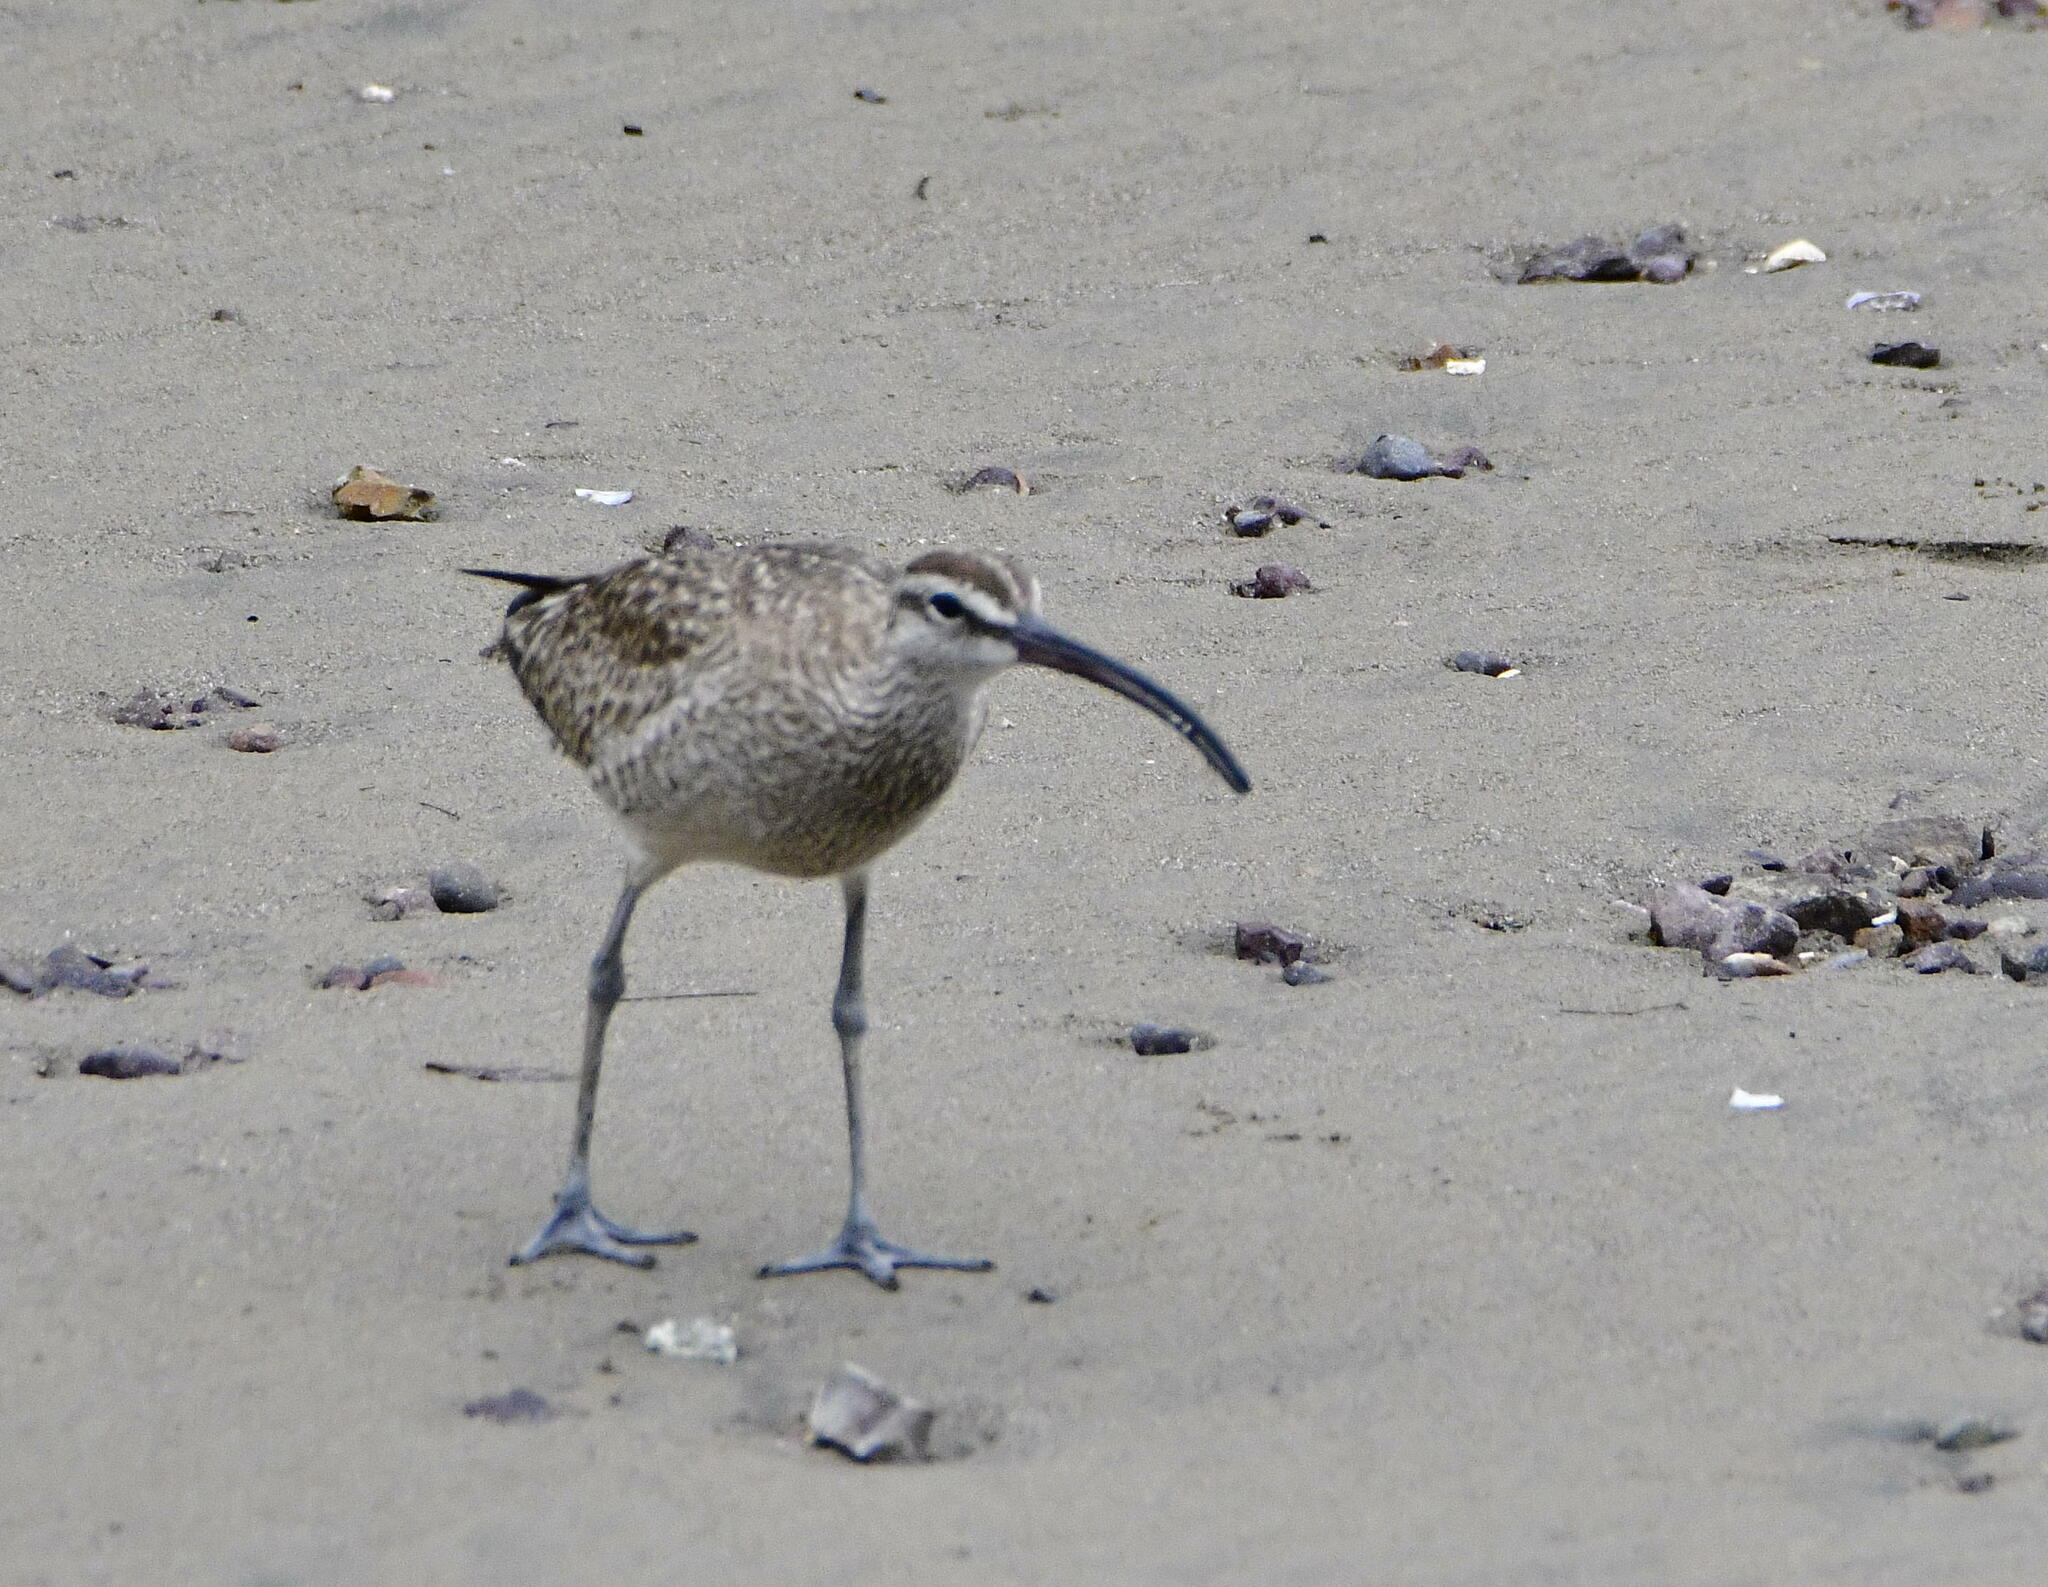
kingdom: Animalia
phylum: Chordata
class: Aves
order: Charadriiformes
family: Scolopacidae
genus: Numenius
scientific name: Numenius phaeopus
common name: Whimbrel
